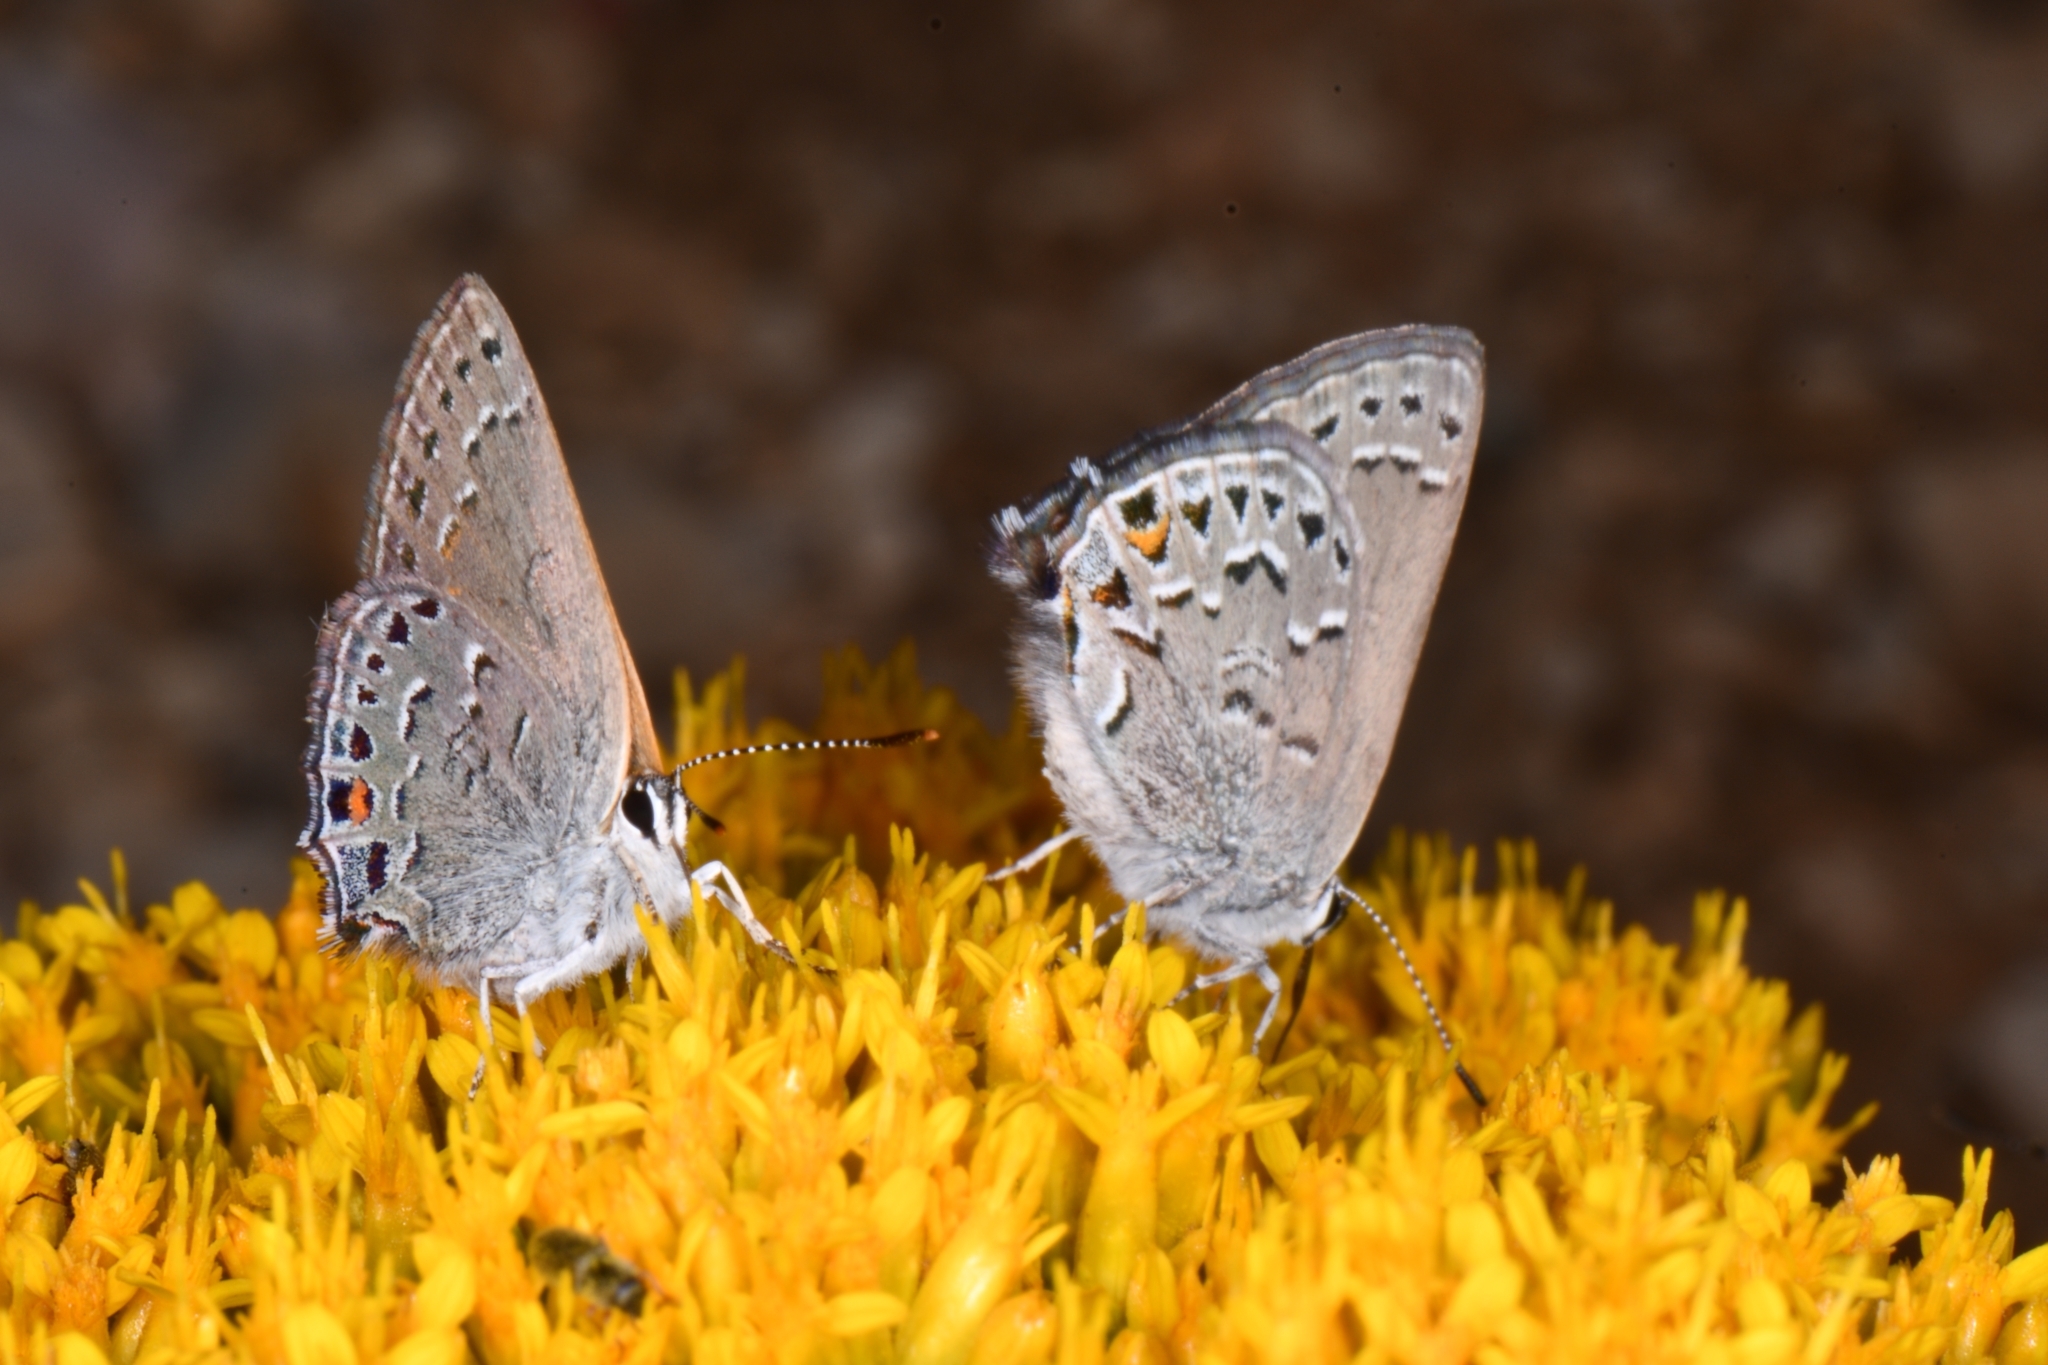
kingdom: Animalia
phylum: Arthropoda
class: Insecta
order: Lepidoptera
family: Lycaenidae
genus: Satyrium
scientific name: Satyrium behrii
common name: Behr's hairstreak
